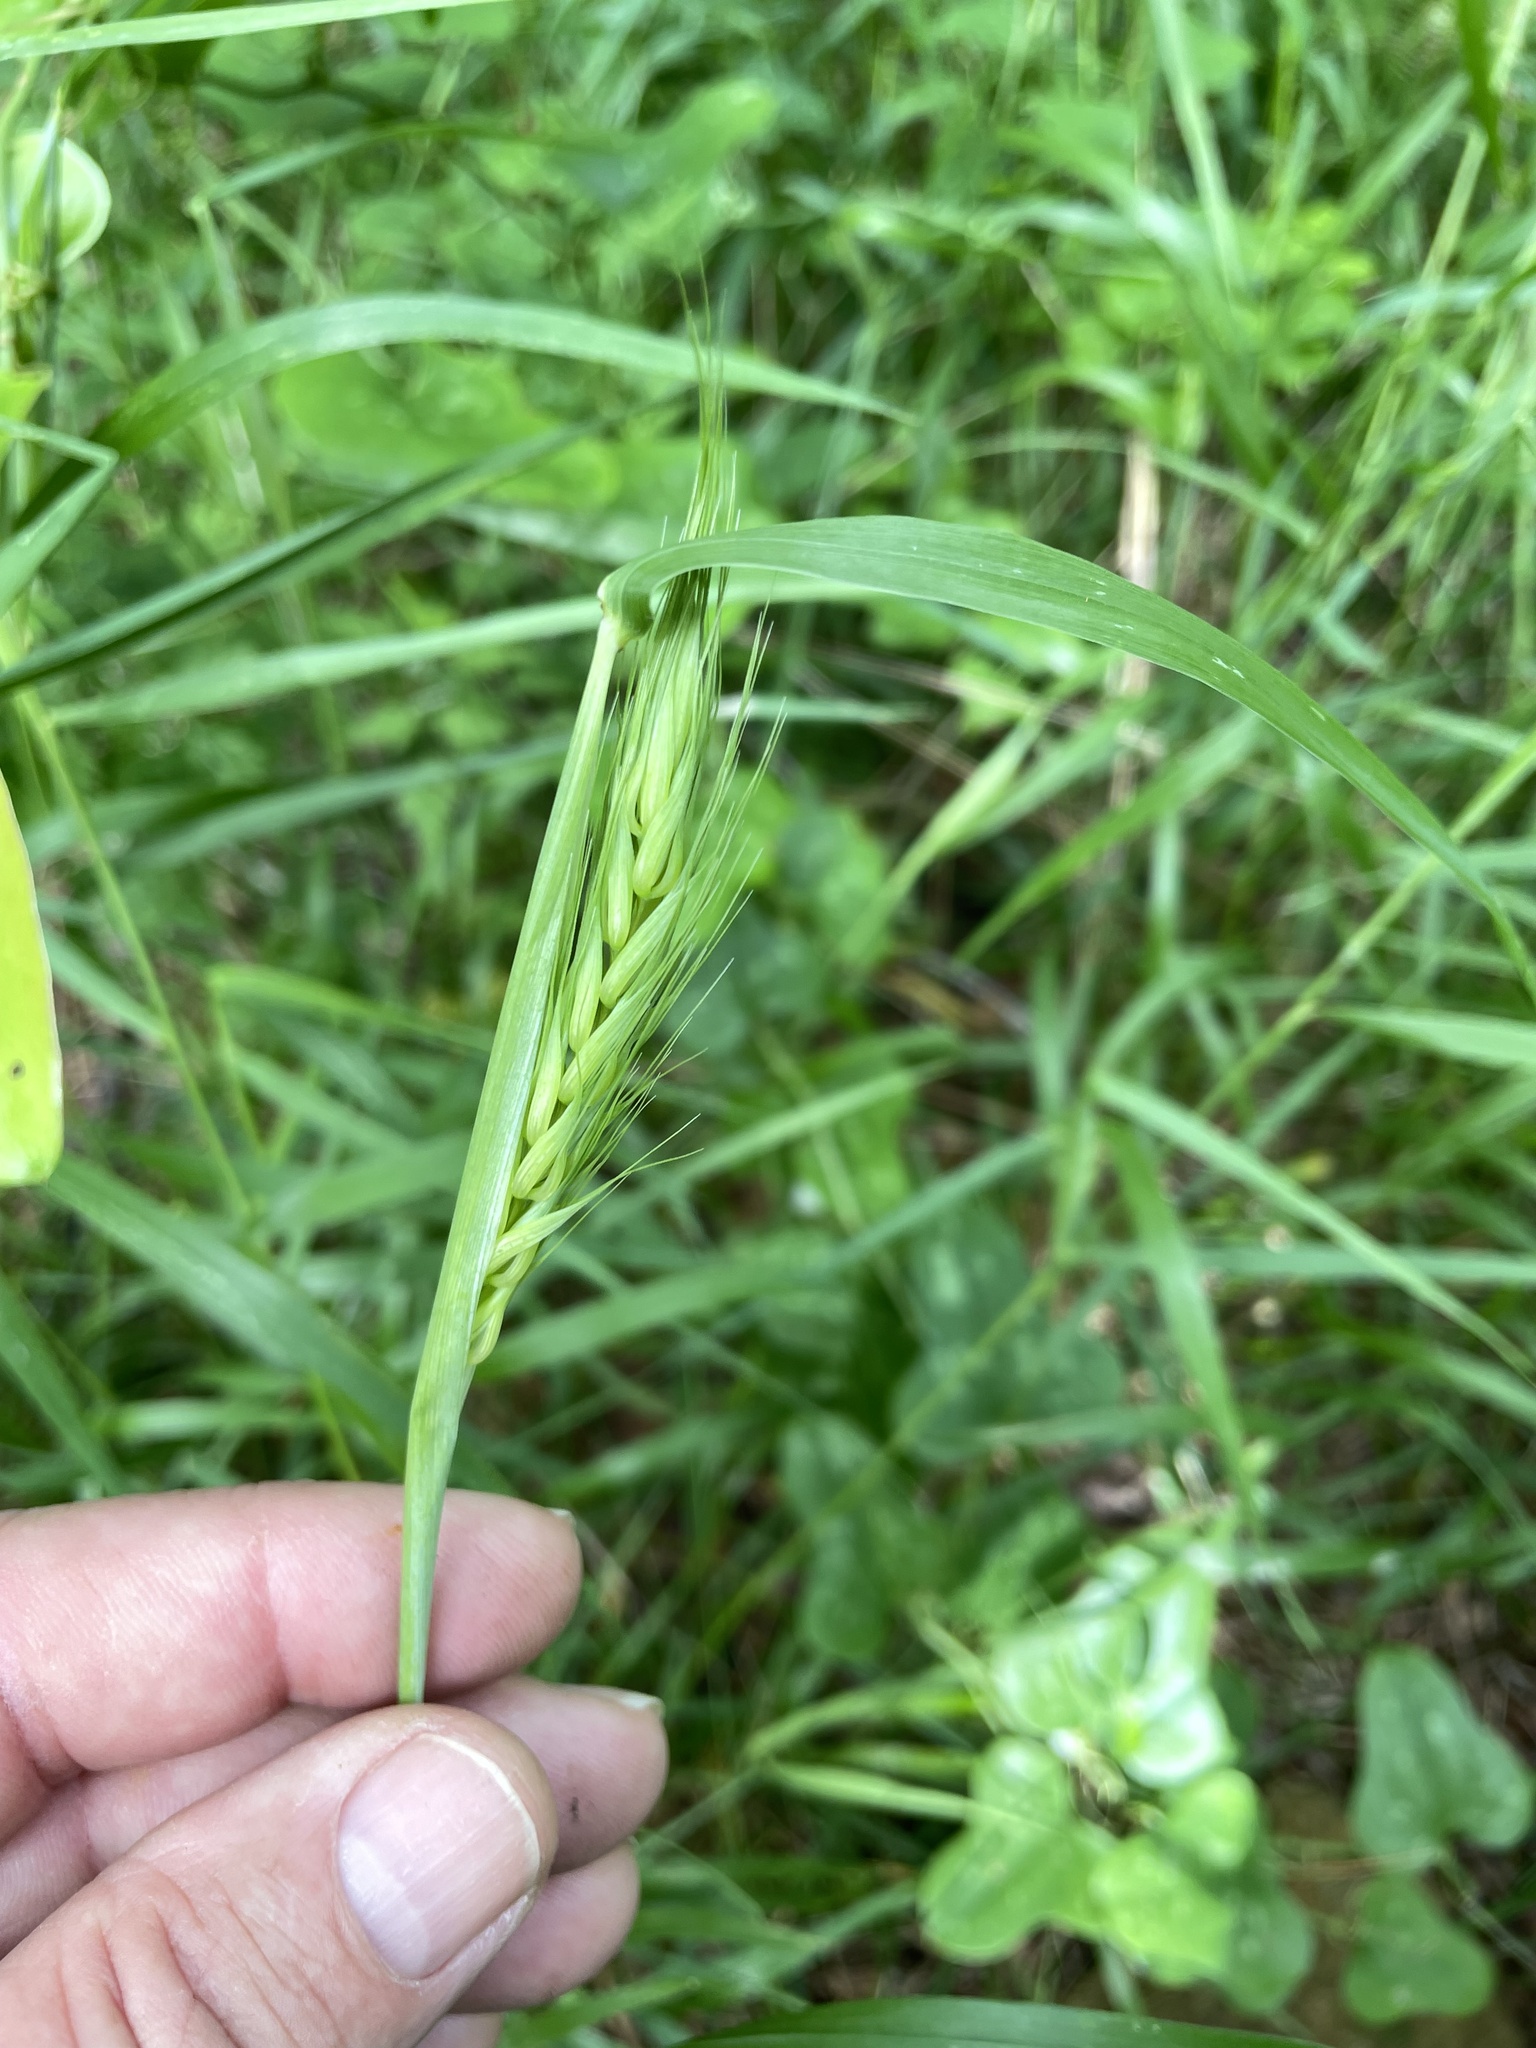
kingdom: Plantae
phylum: Tracheophyta
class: Liliopsida
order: Poales
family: Poaceae
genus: Elymus
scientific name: Elymus virginicus
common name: Common eastern wildrye
